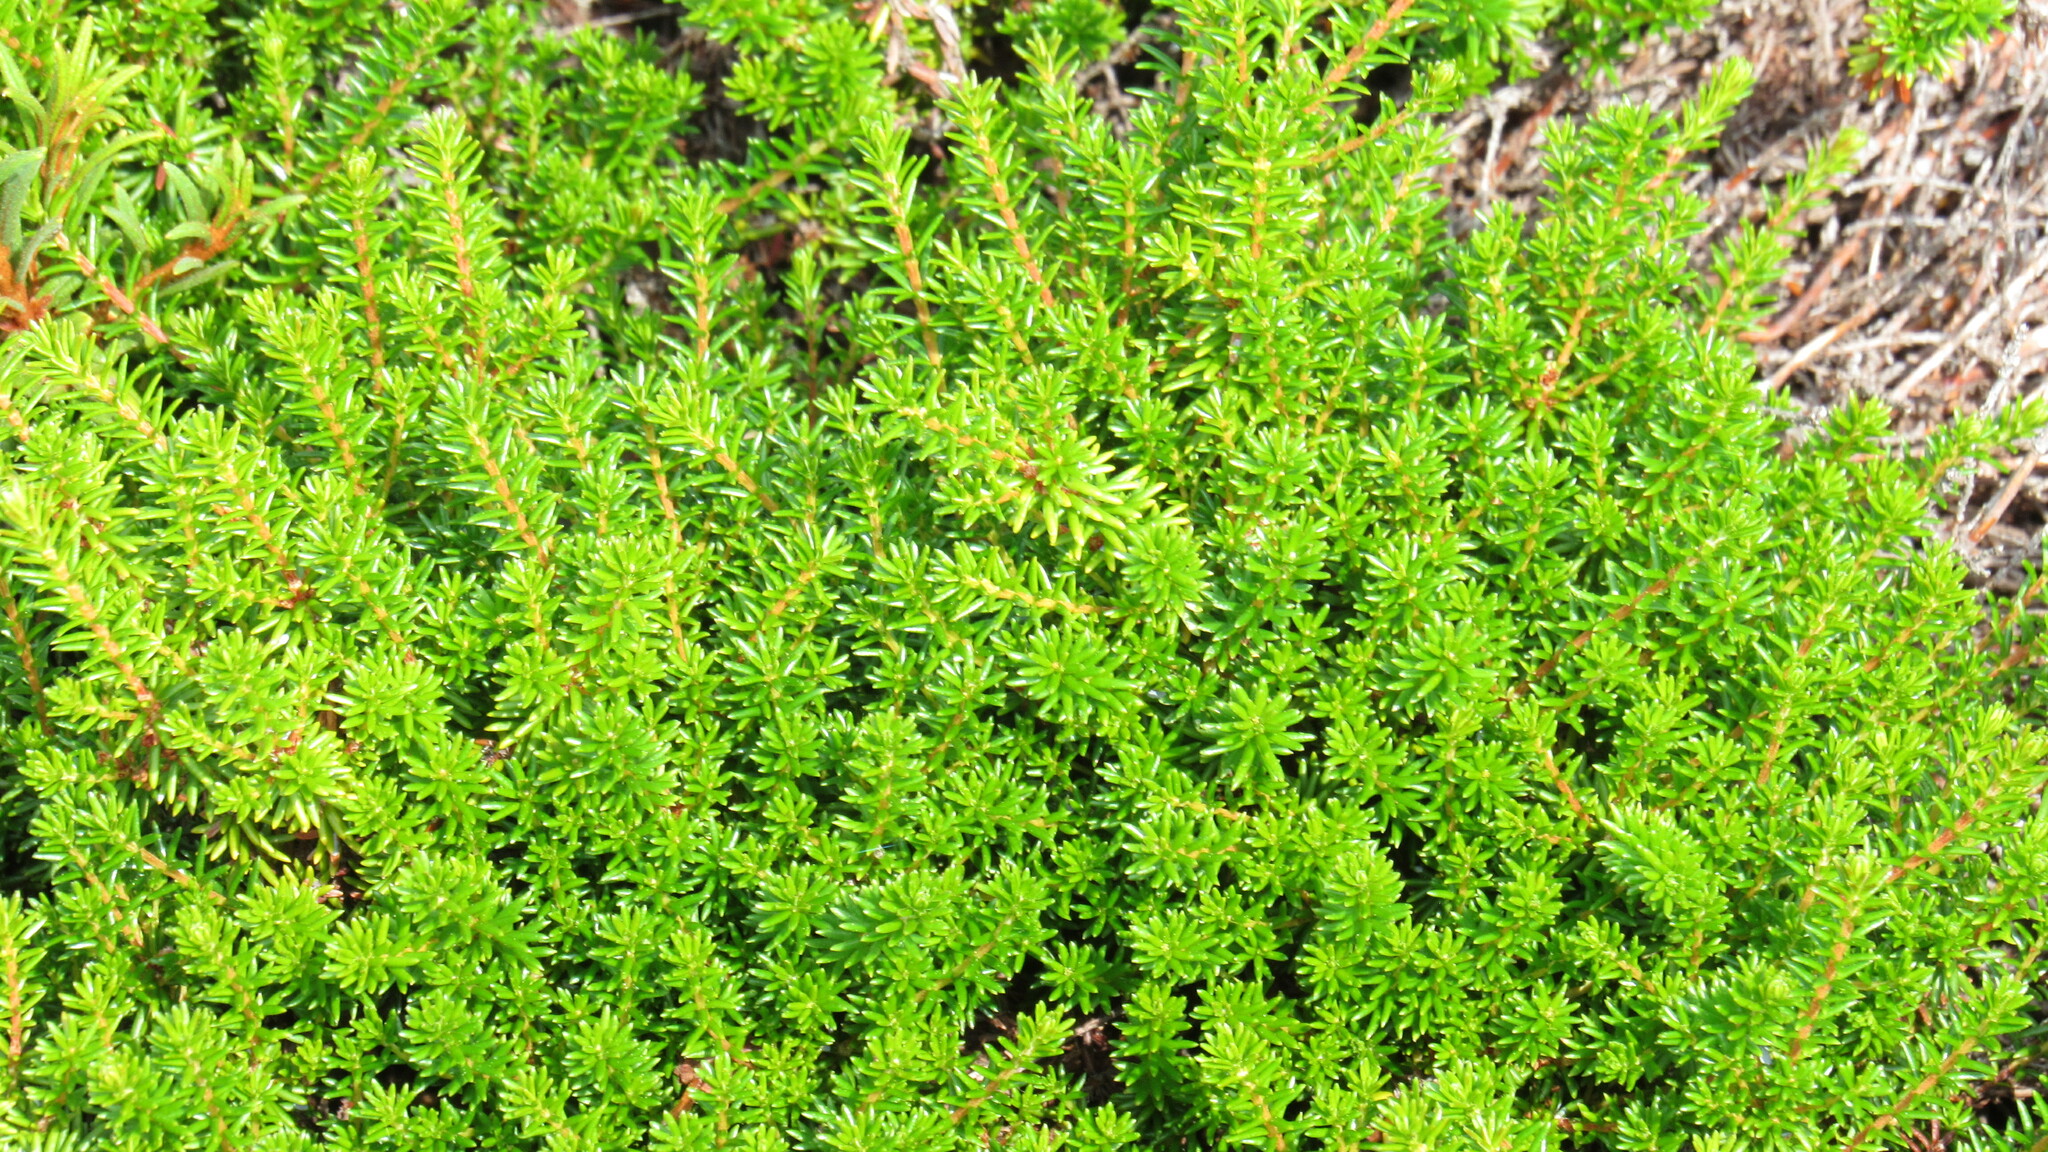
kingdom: Plantae
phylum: Tracheophyta
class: Magnoliopsida
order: Ericales
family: Ericaceae
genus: Empetrum
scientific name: Empetrum nigrum
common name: Black crowberry
